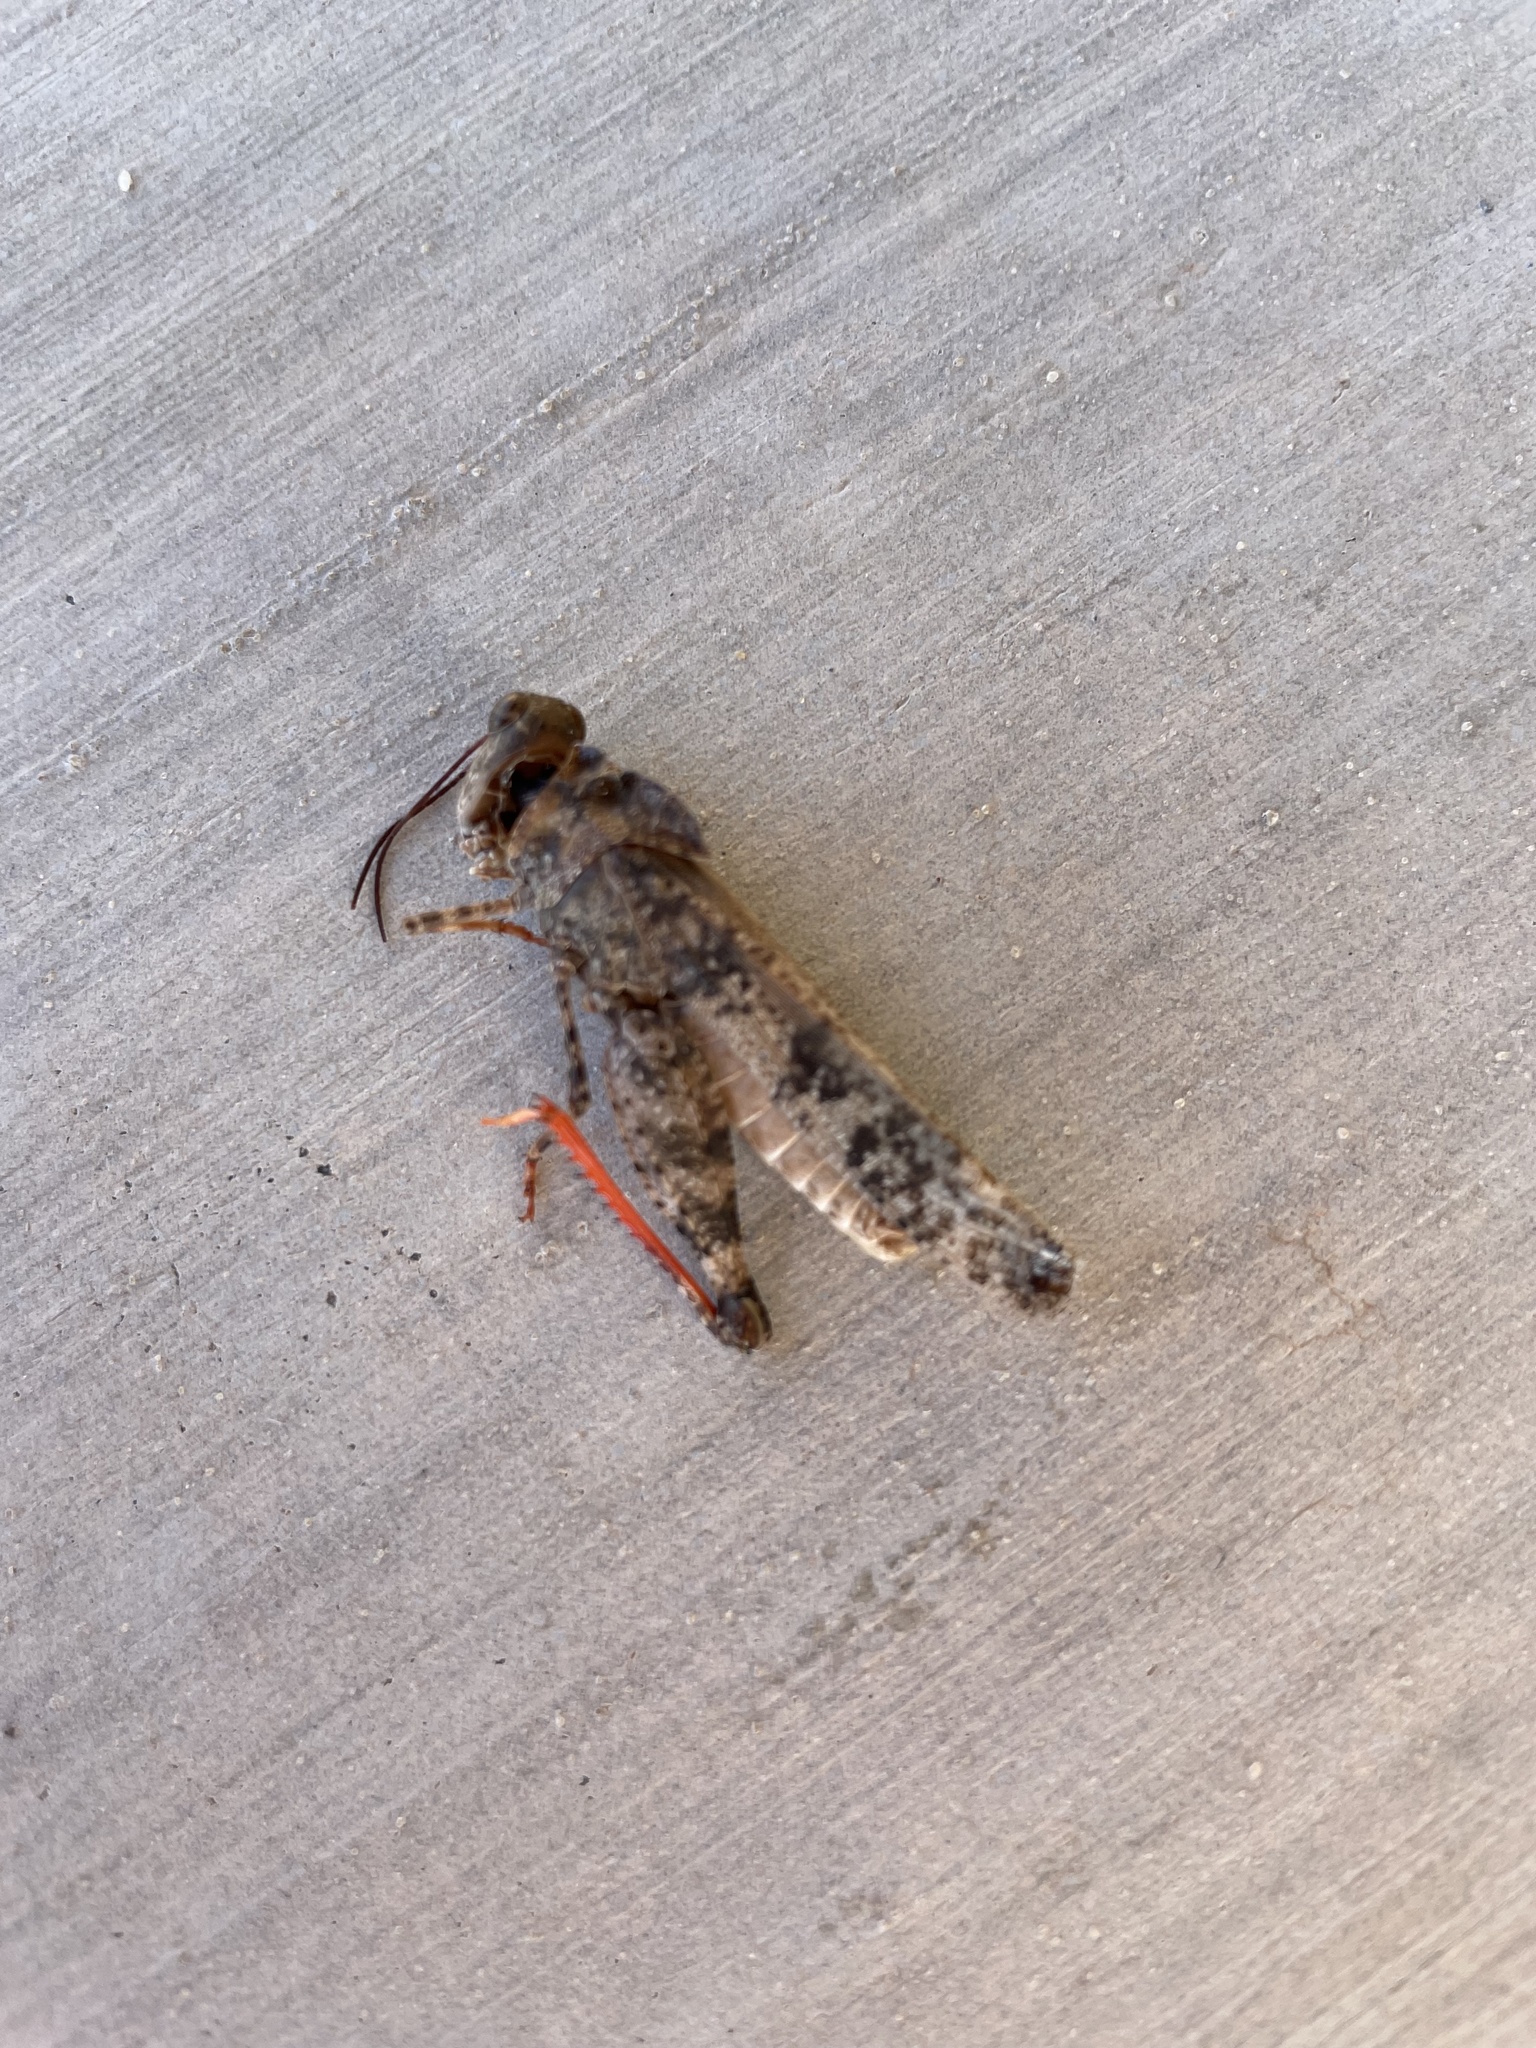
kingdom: Animalia
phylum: Arthropoda
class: Insecta
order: Orthoptera
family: Acrididae
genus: Spharagemon
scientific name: Spharagemon cristatum
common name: Ridgeback sand grasshopper
